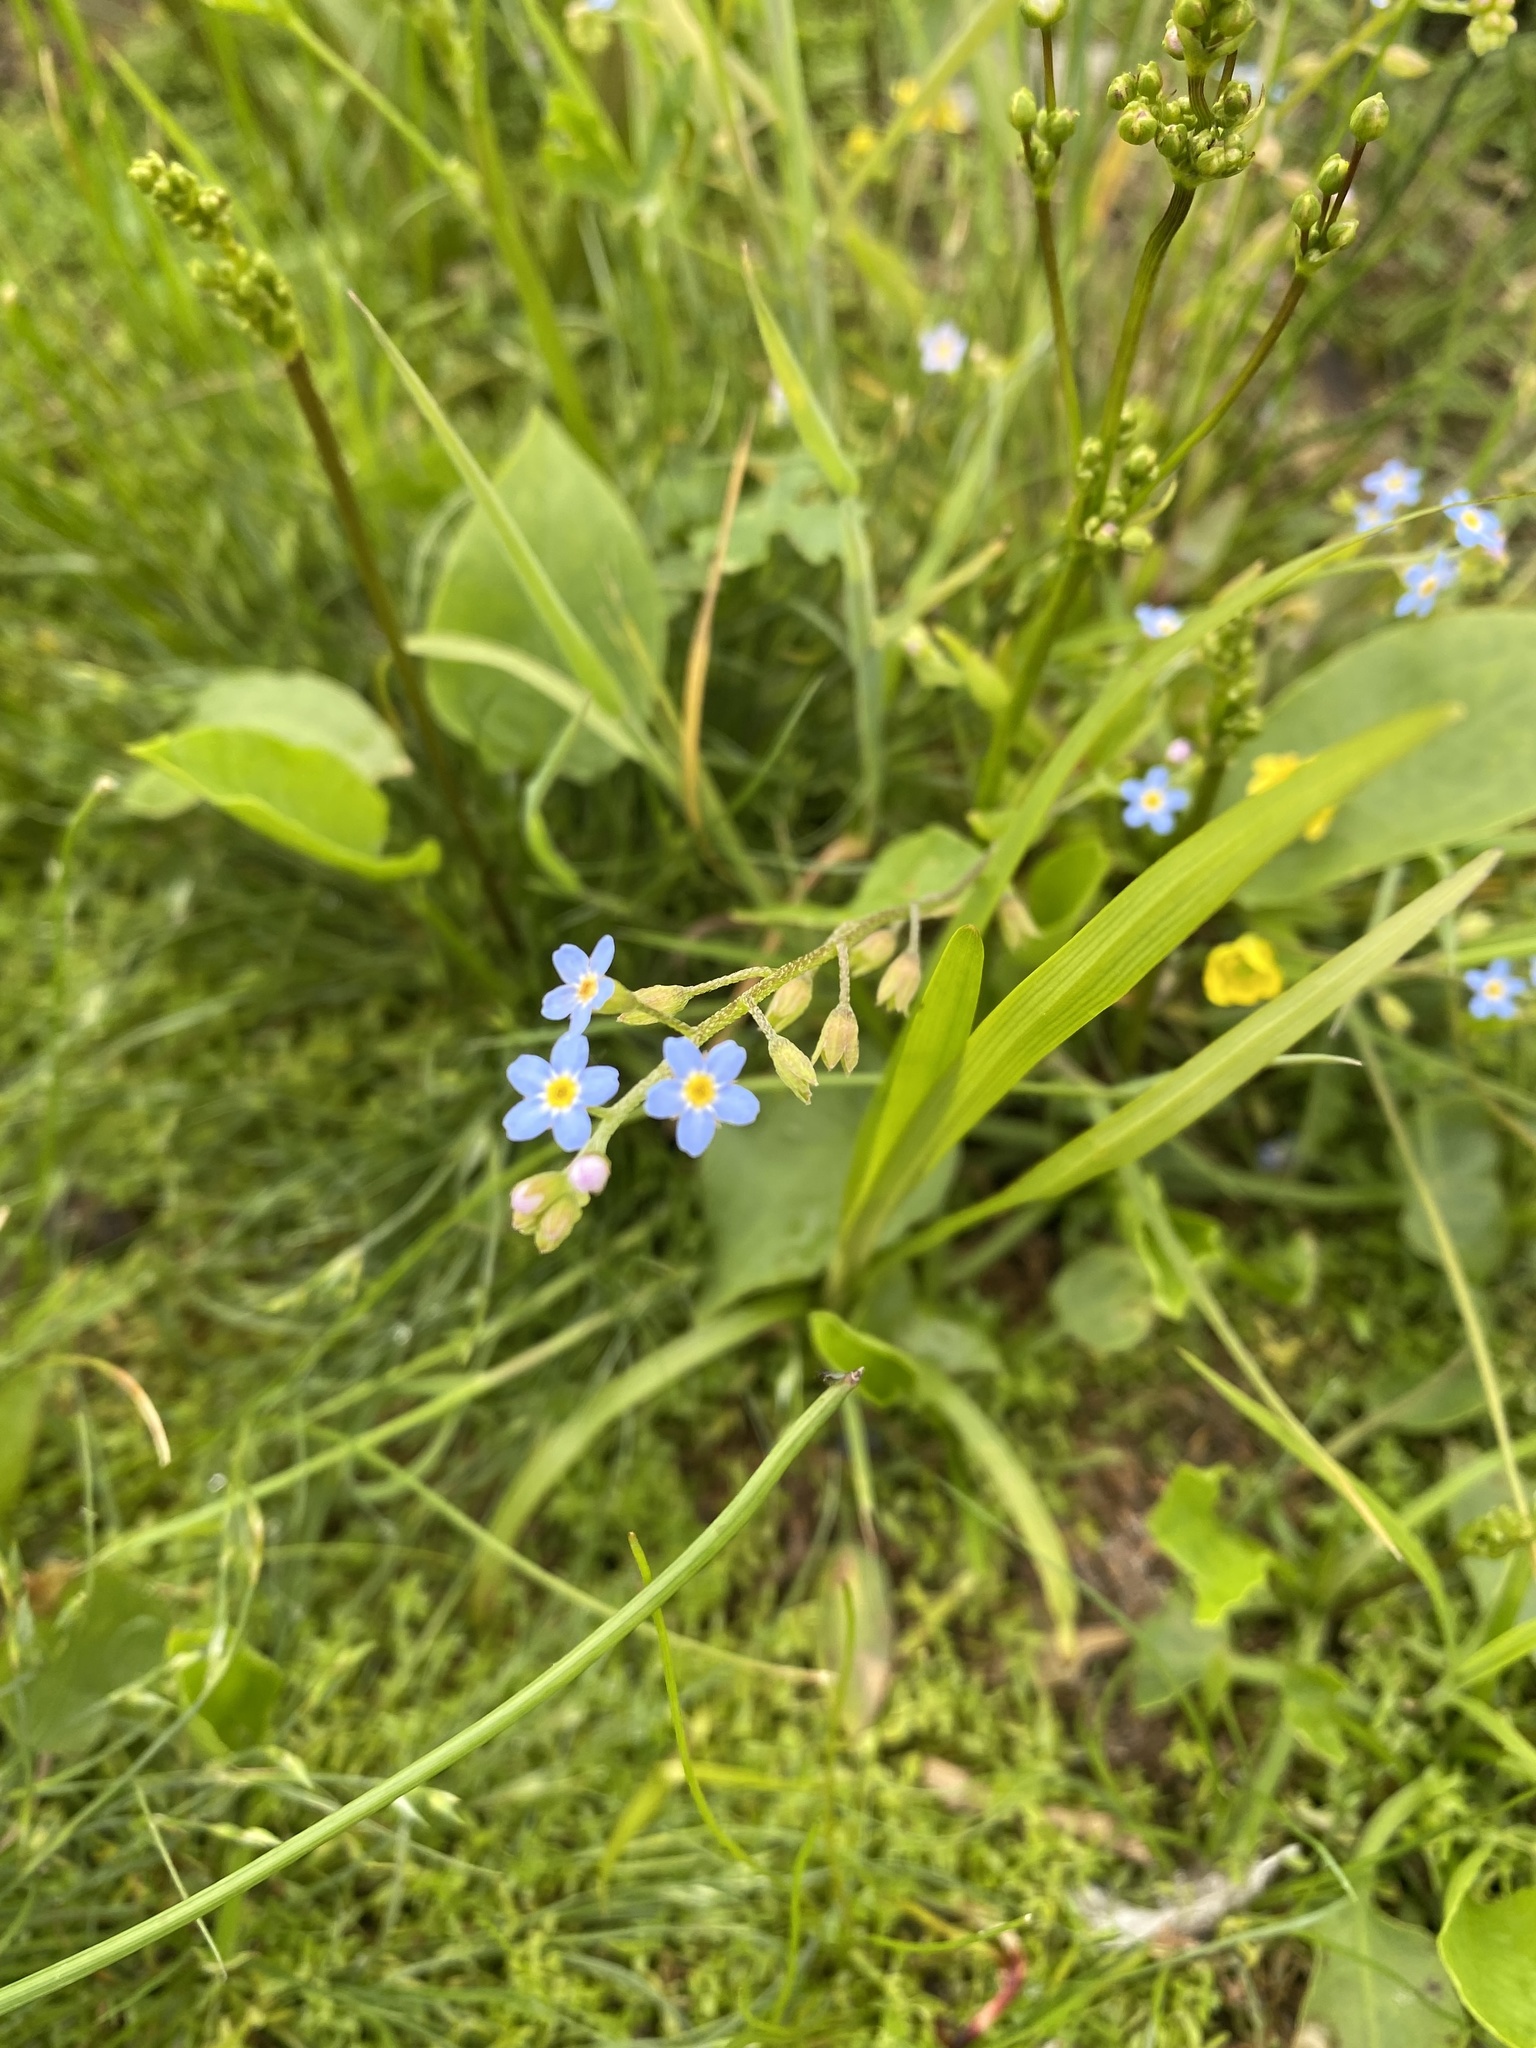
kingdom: Plantae
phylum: Tracheophyta
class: Magnoliopsida
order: Boraginales
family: Boraginaceae
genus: Myosotis
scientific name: Myosotis scorpioides
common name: Water forget-me-not
